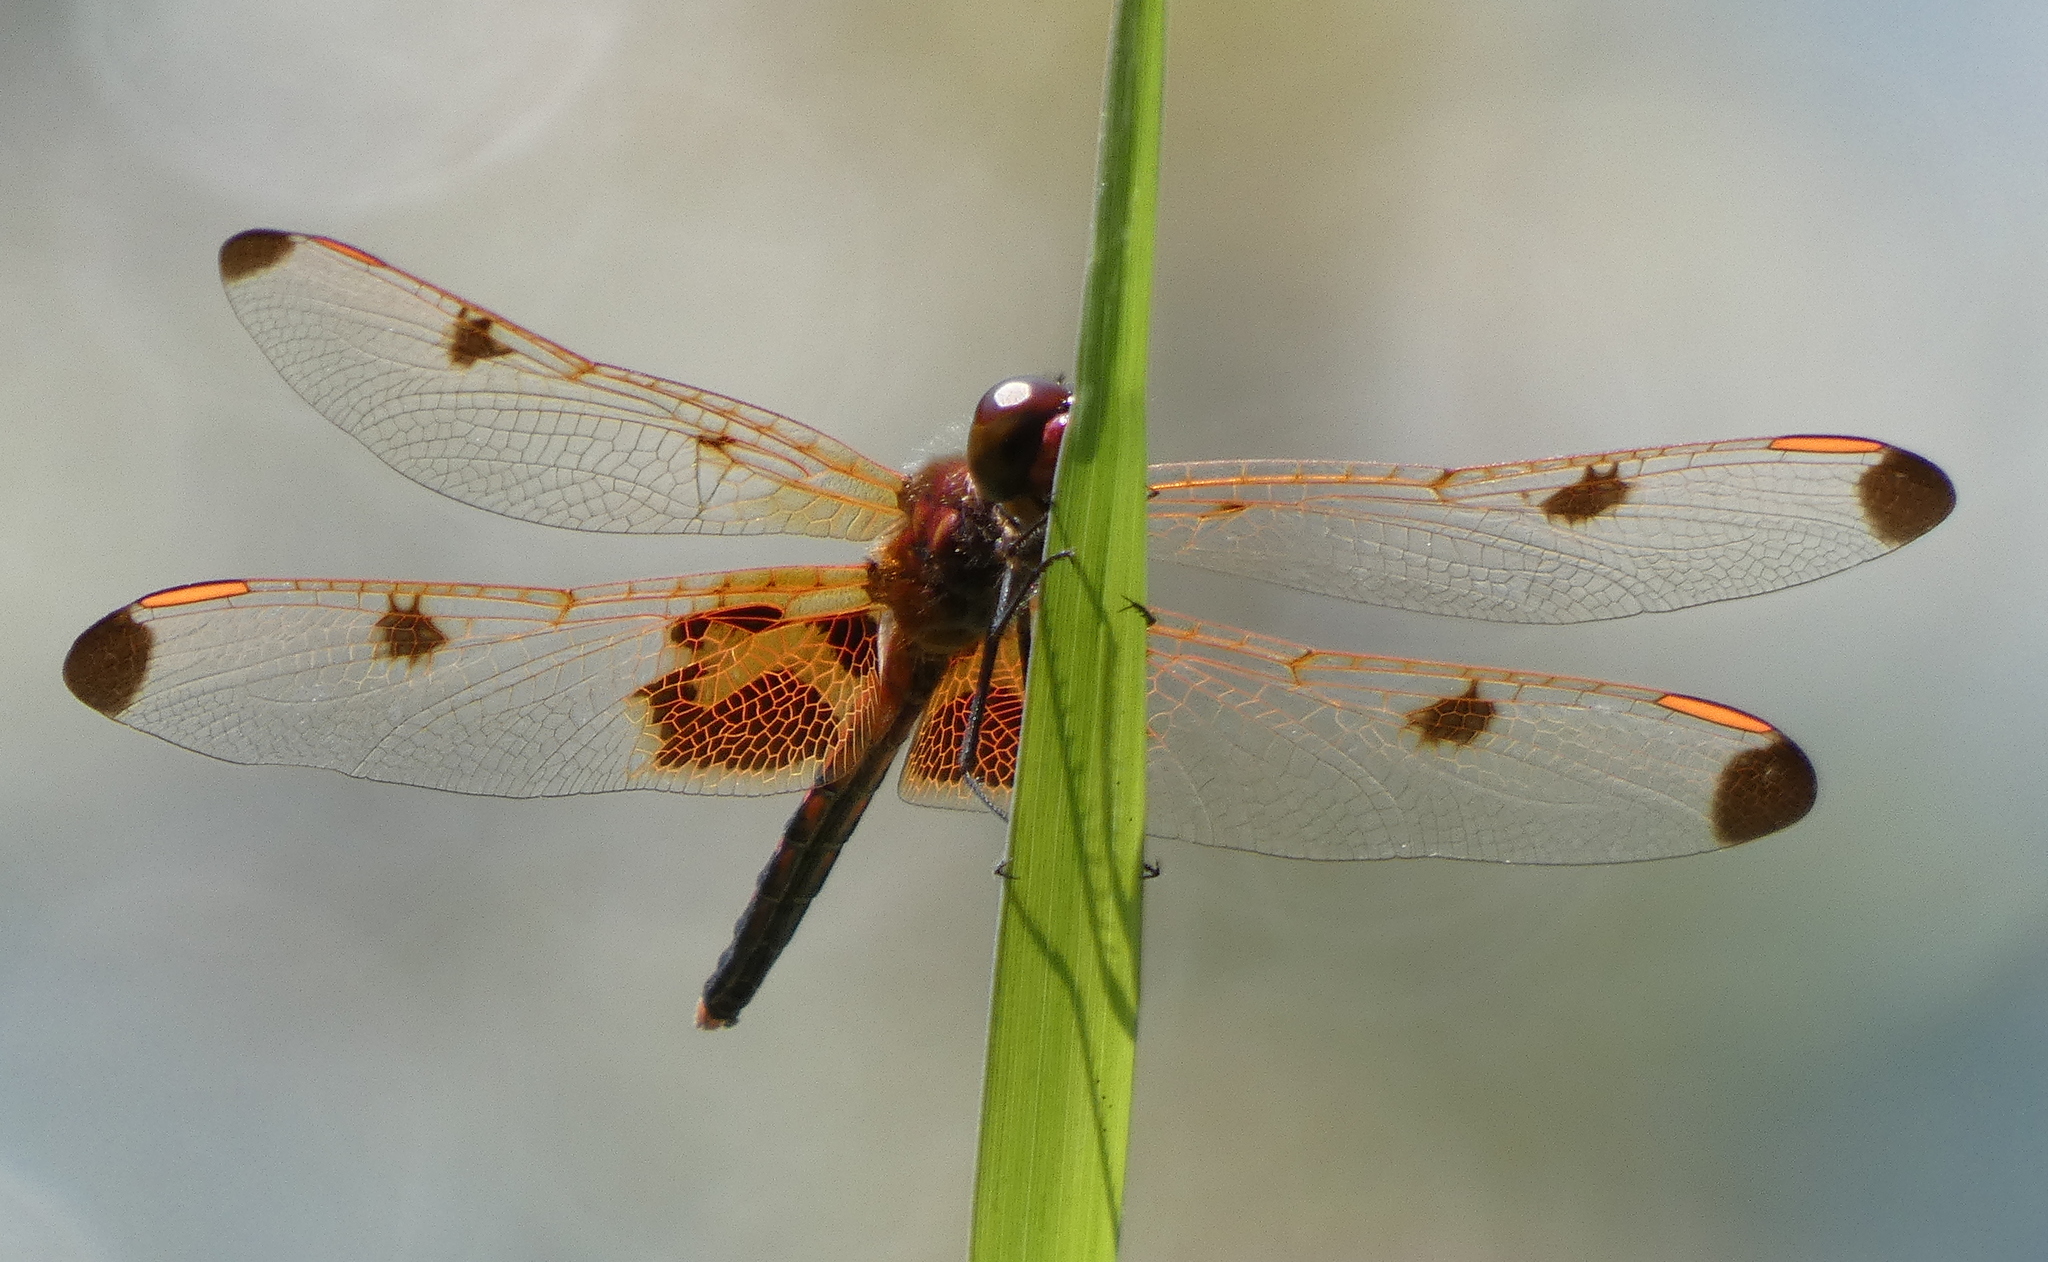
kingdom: Animalia
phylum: Arthropoda
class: Insecta
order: Odonata
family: Libellulidae
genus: Celithemis
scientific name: Celithemis elisa
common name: Calico pennant
